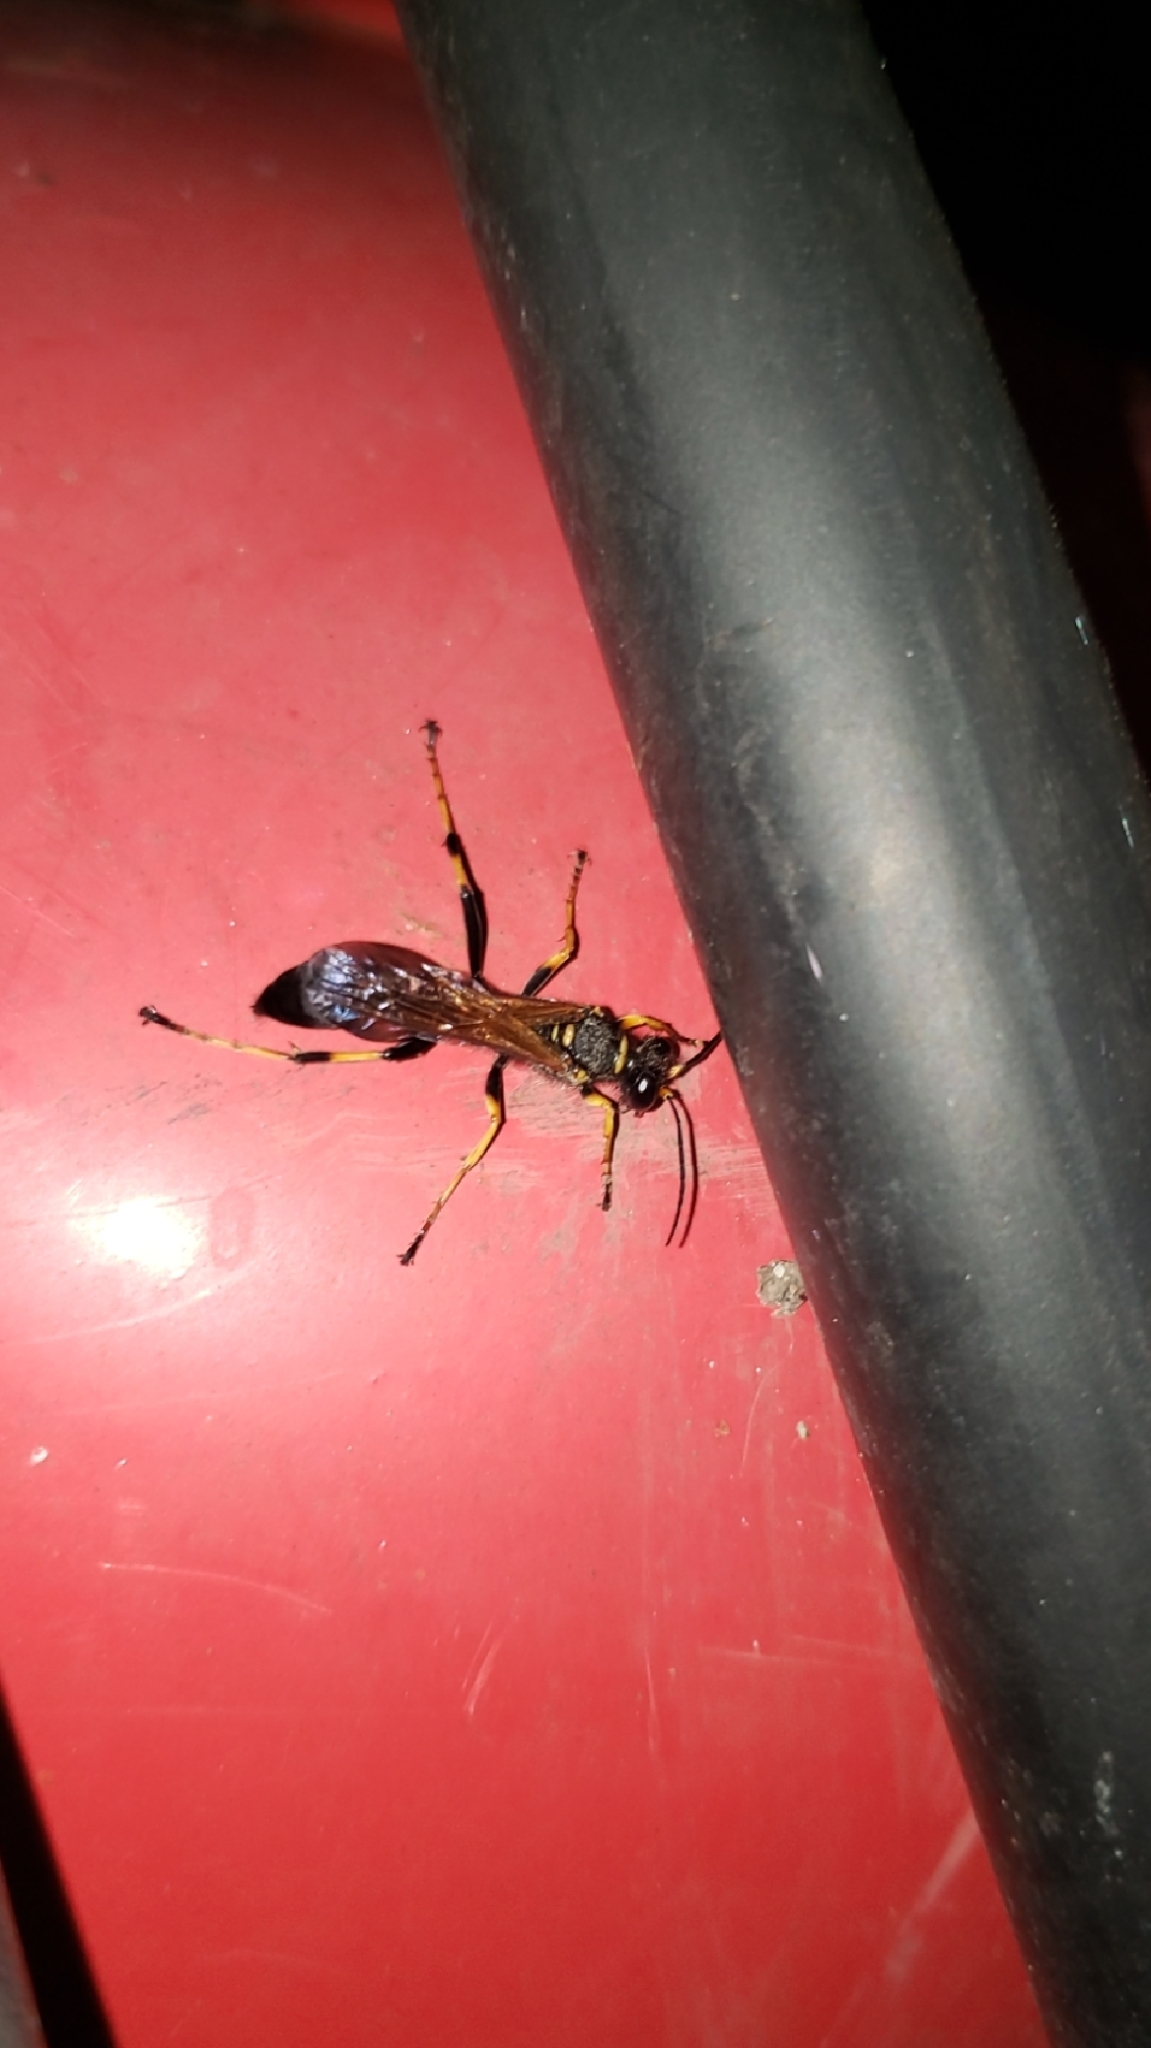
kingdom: Animalia
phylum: Arthropoda
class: Insecta
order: Hymenoptera
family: Sphecidae
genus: Sceliphron
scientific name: Sceliphron caementarium
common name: Mud dauber
